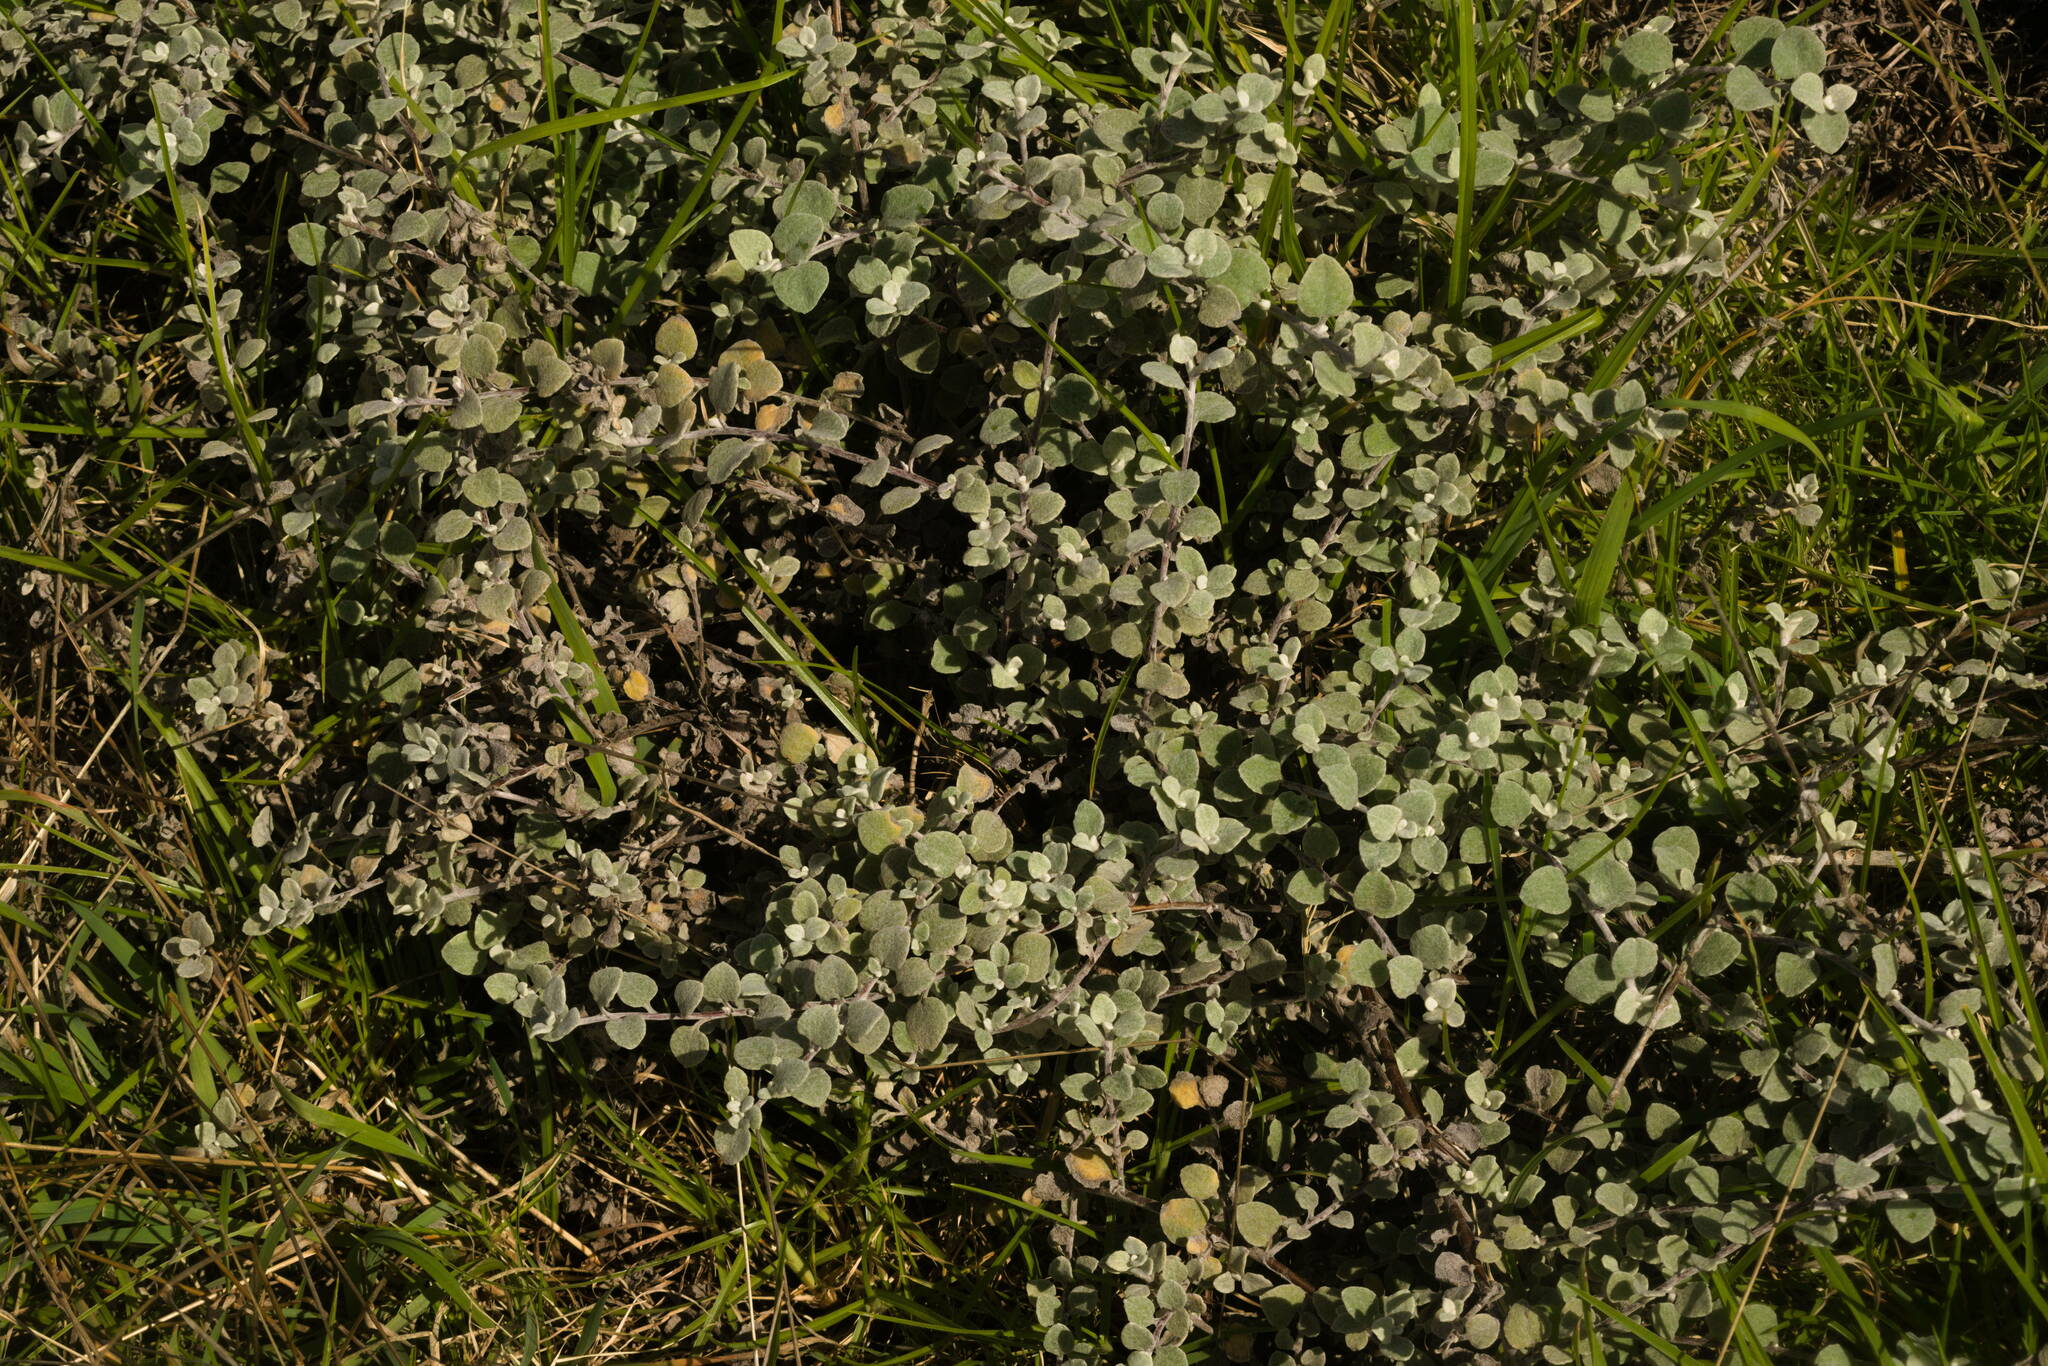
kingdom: Plantae
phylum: Tracheophyta
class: Magnoliopsida
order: Asterales
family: Asteraceae
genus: Helichrysum
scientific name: Helichrysum petiolare
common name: Licorice-plant
